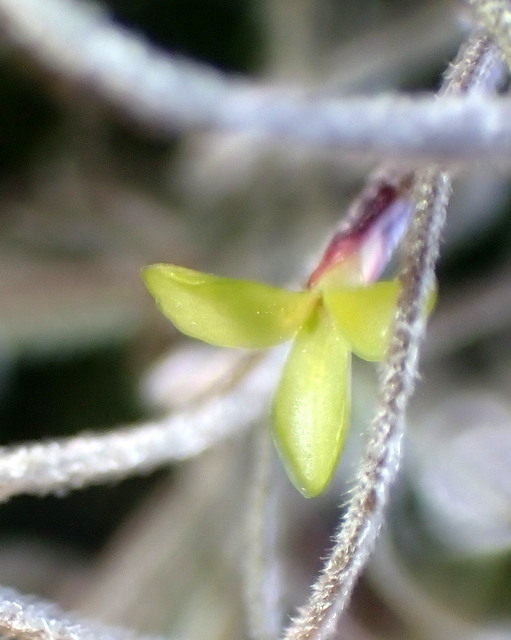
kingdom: Plantae
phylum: Tracheophyta
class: Liliopsida
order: Poales
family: Bromeliaceae
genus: Tillandsia
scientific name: Tillandsia usneoides
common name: Spanish moss
